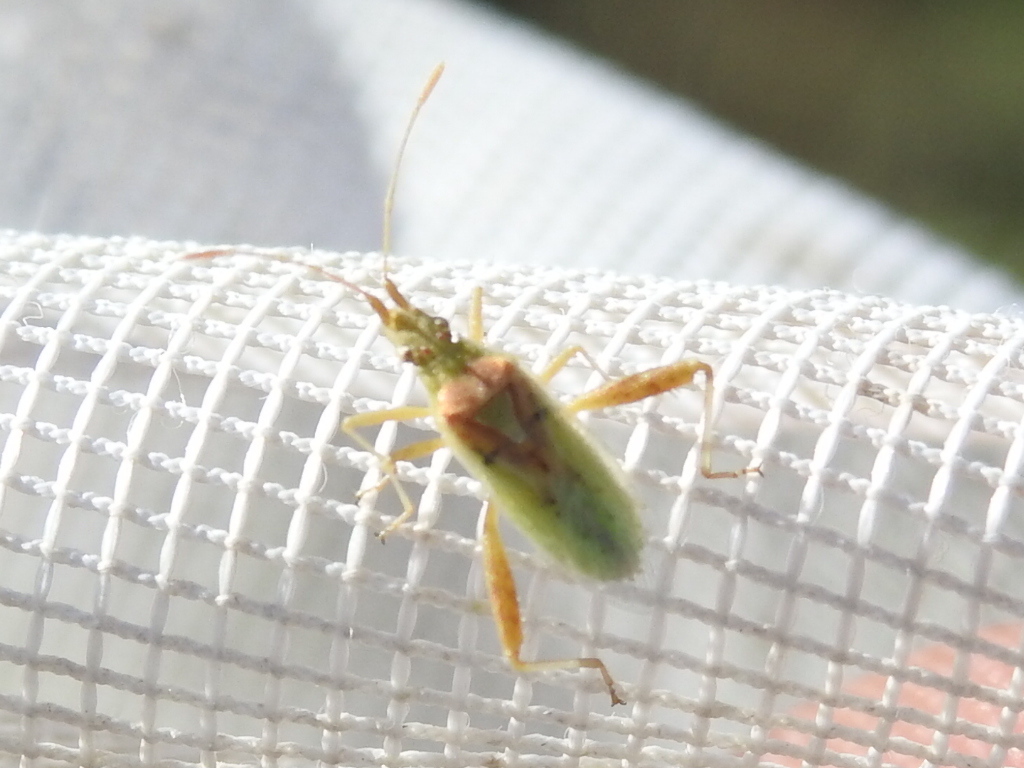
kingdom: Animalia
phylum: Arthropoda
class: Insecta
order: Hemiptera
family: Rhopalidae
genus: Harmostes
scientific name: Harmostes reflexulus
